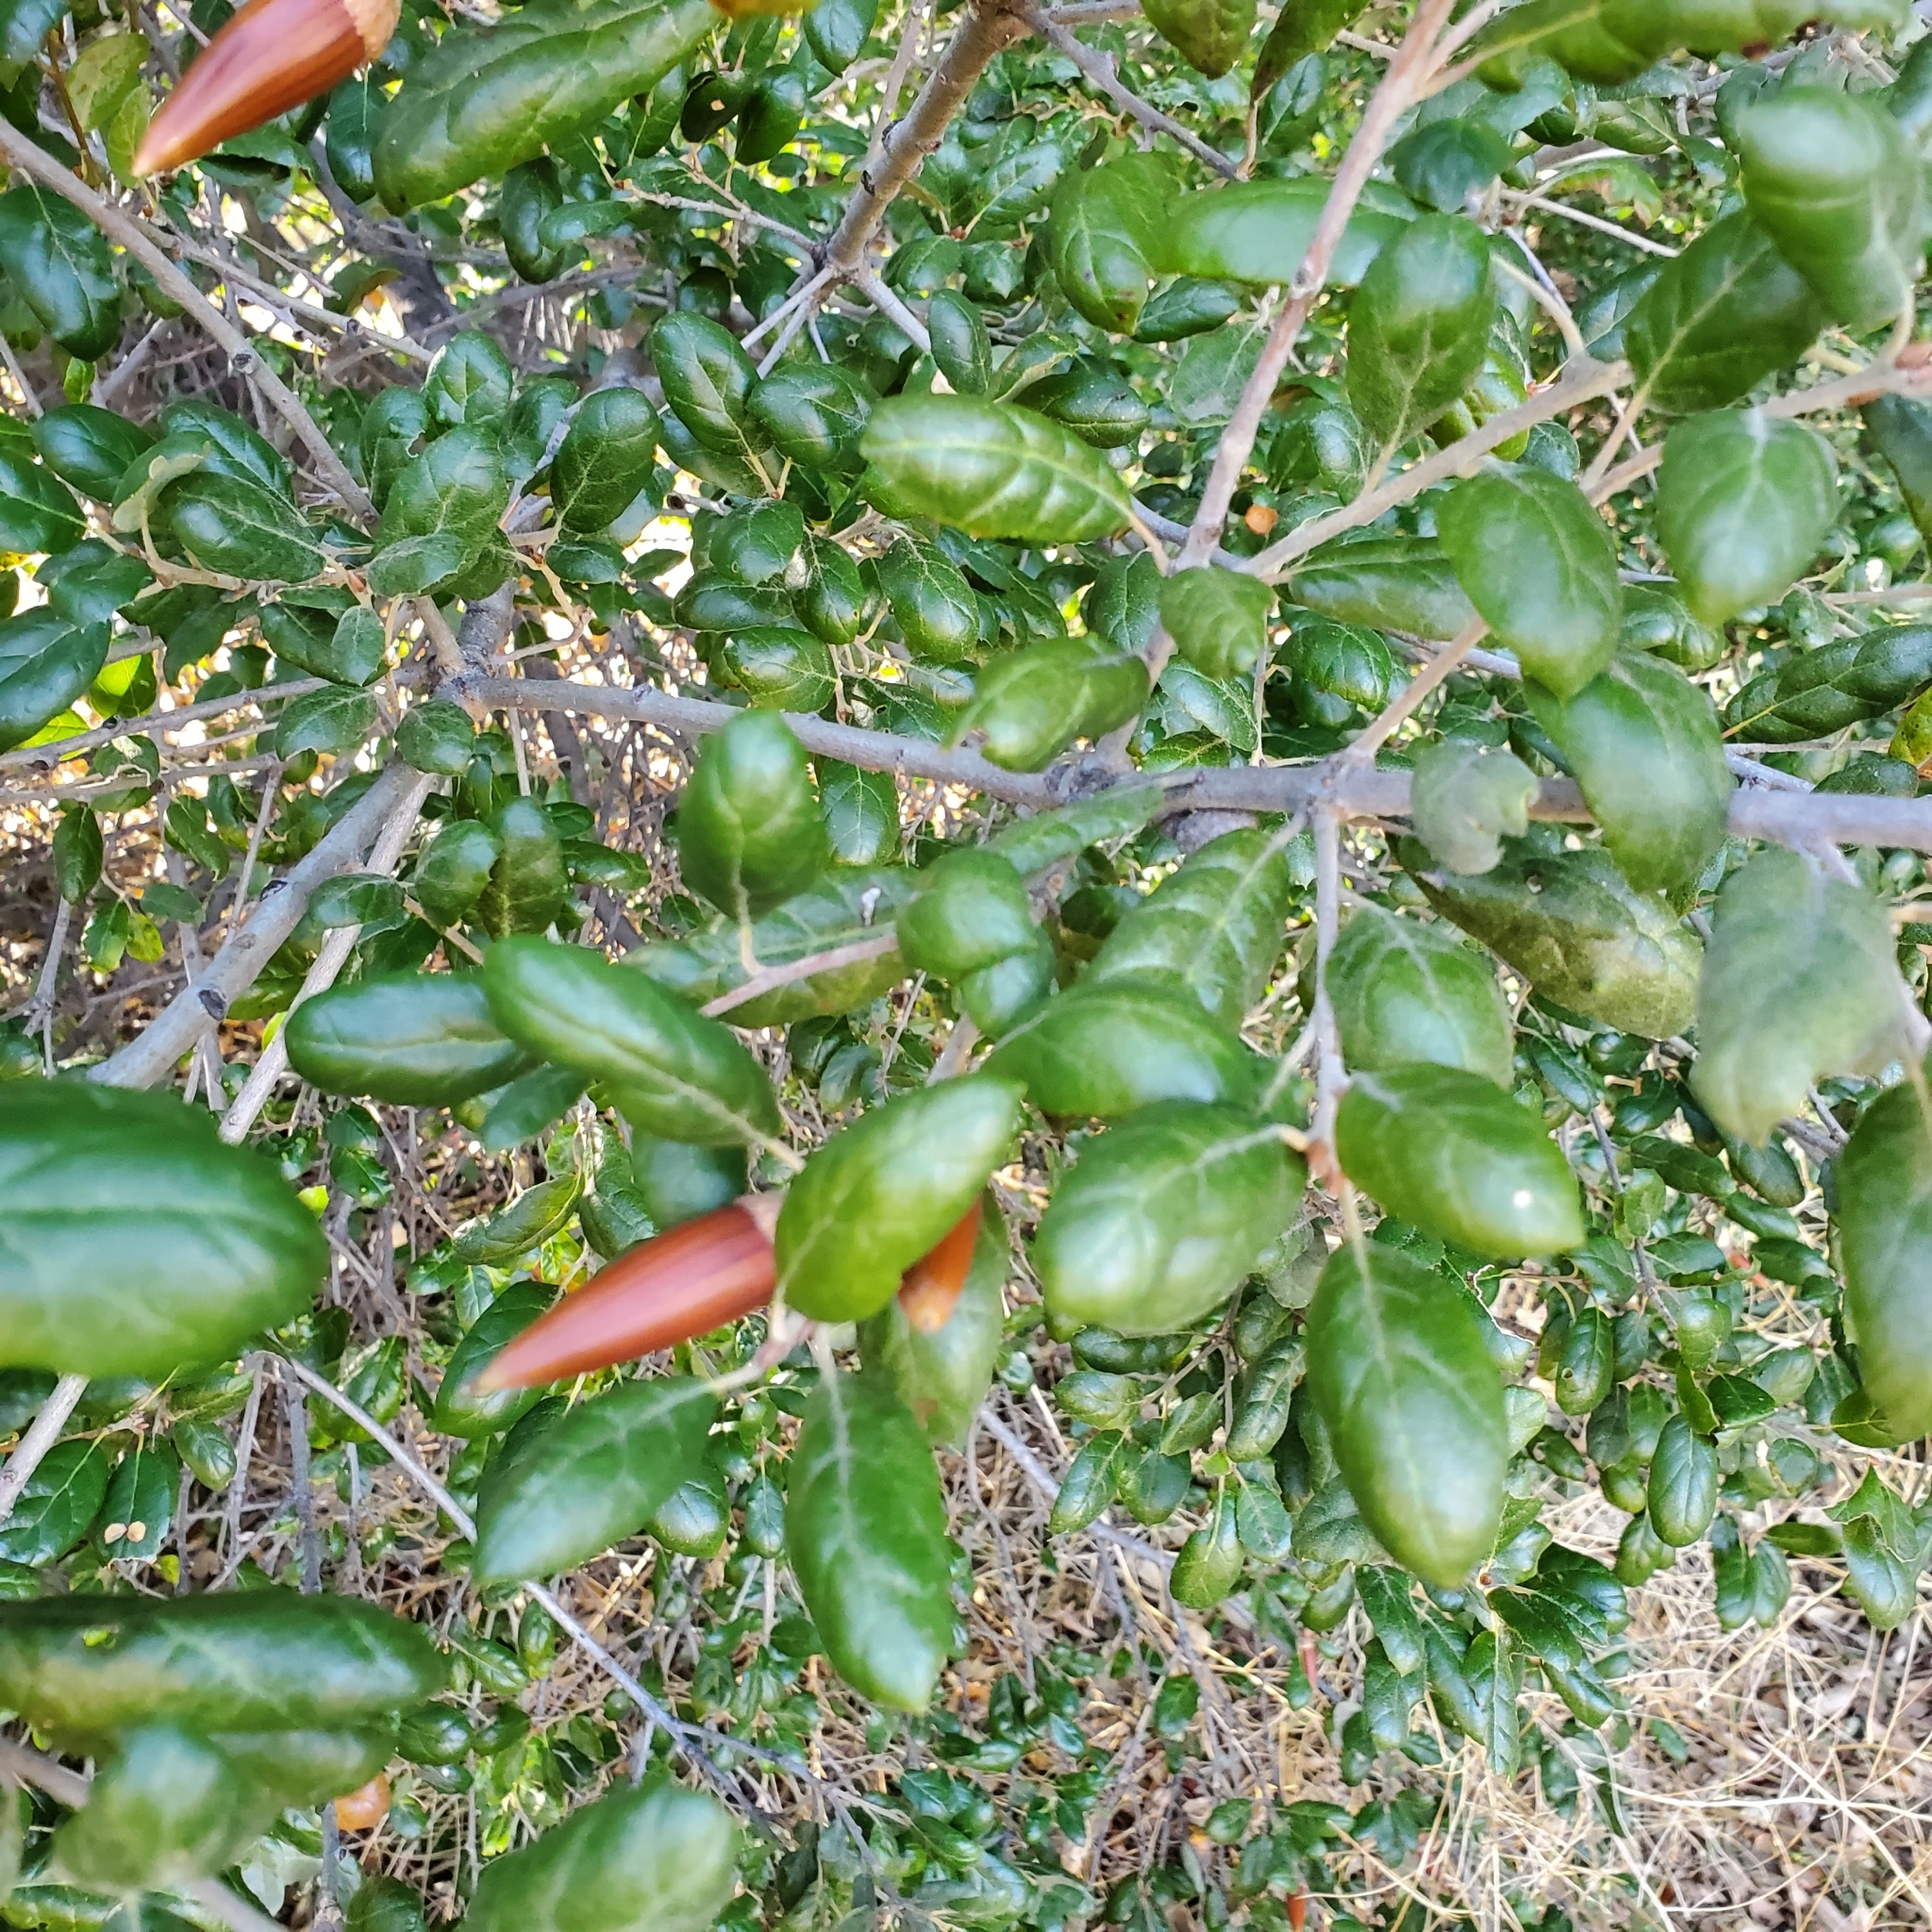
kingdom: Plantae
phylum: Tracheophyta
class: Magnoliopsida
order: Fagales
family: Fagaceae
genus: Quercus
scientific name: Quercus agrifolia
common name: California live oak
